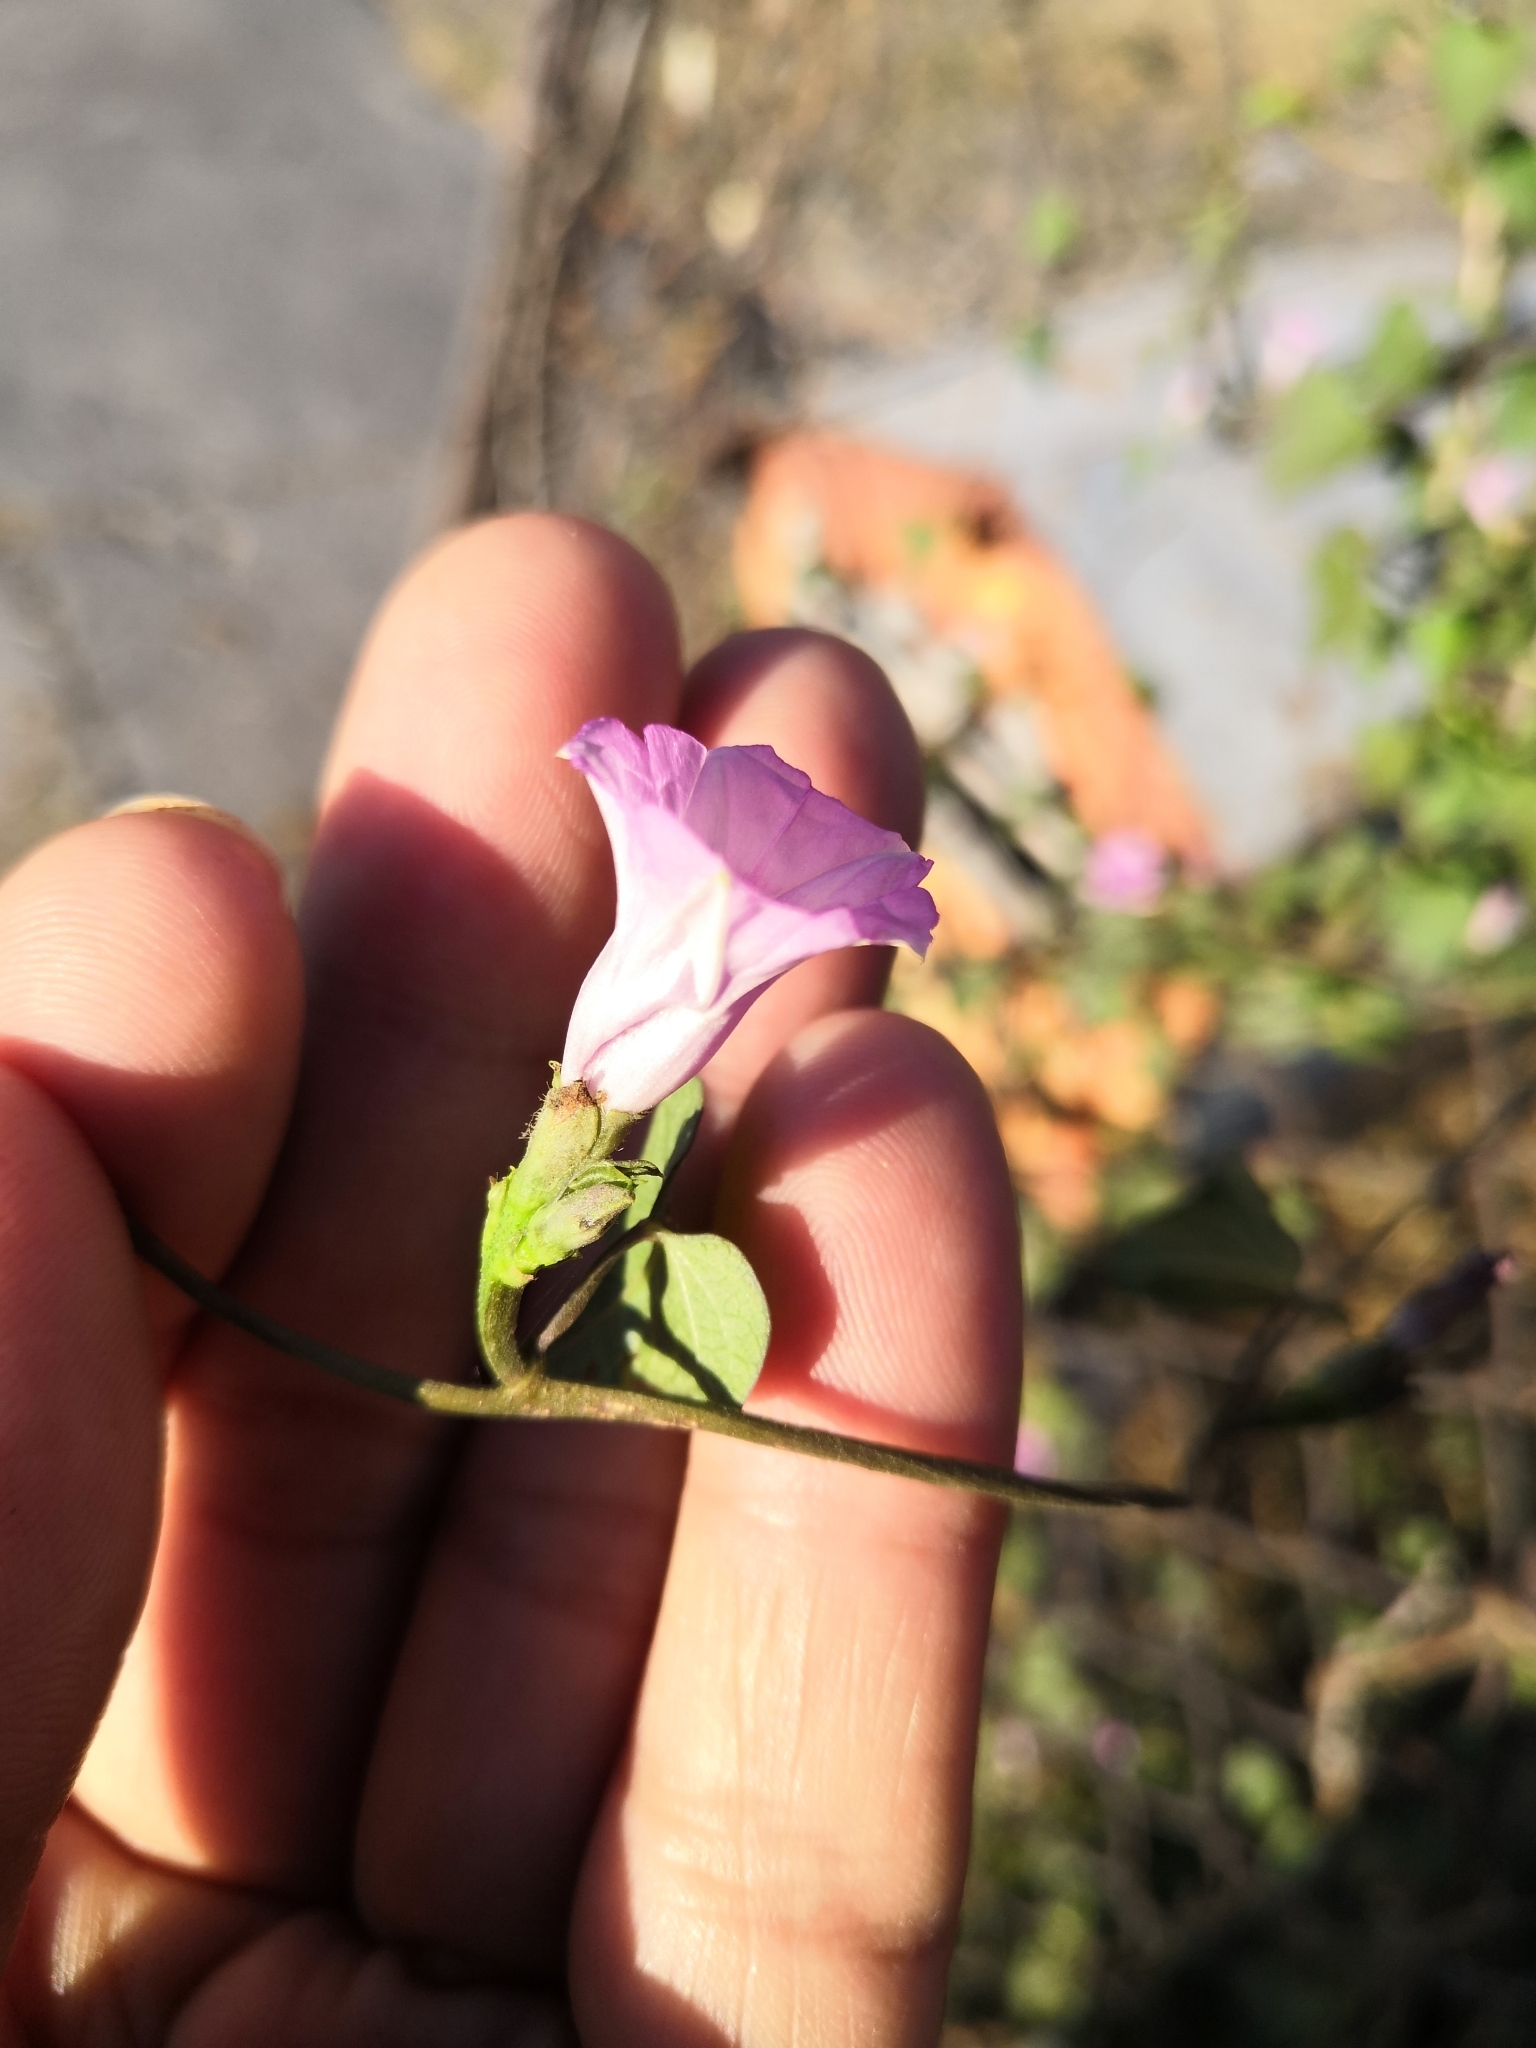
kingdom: Plantae
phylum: Tracheophyta
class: Magnoliopsida
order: Solanales
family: Convolvulaceae
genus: Ipomoea
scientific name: Ipomoea triloba
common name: Little-bell
